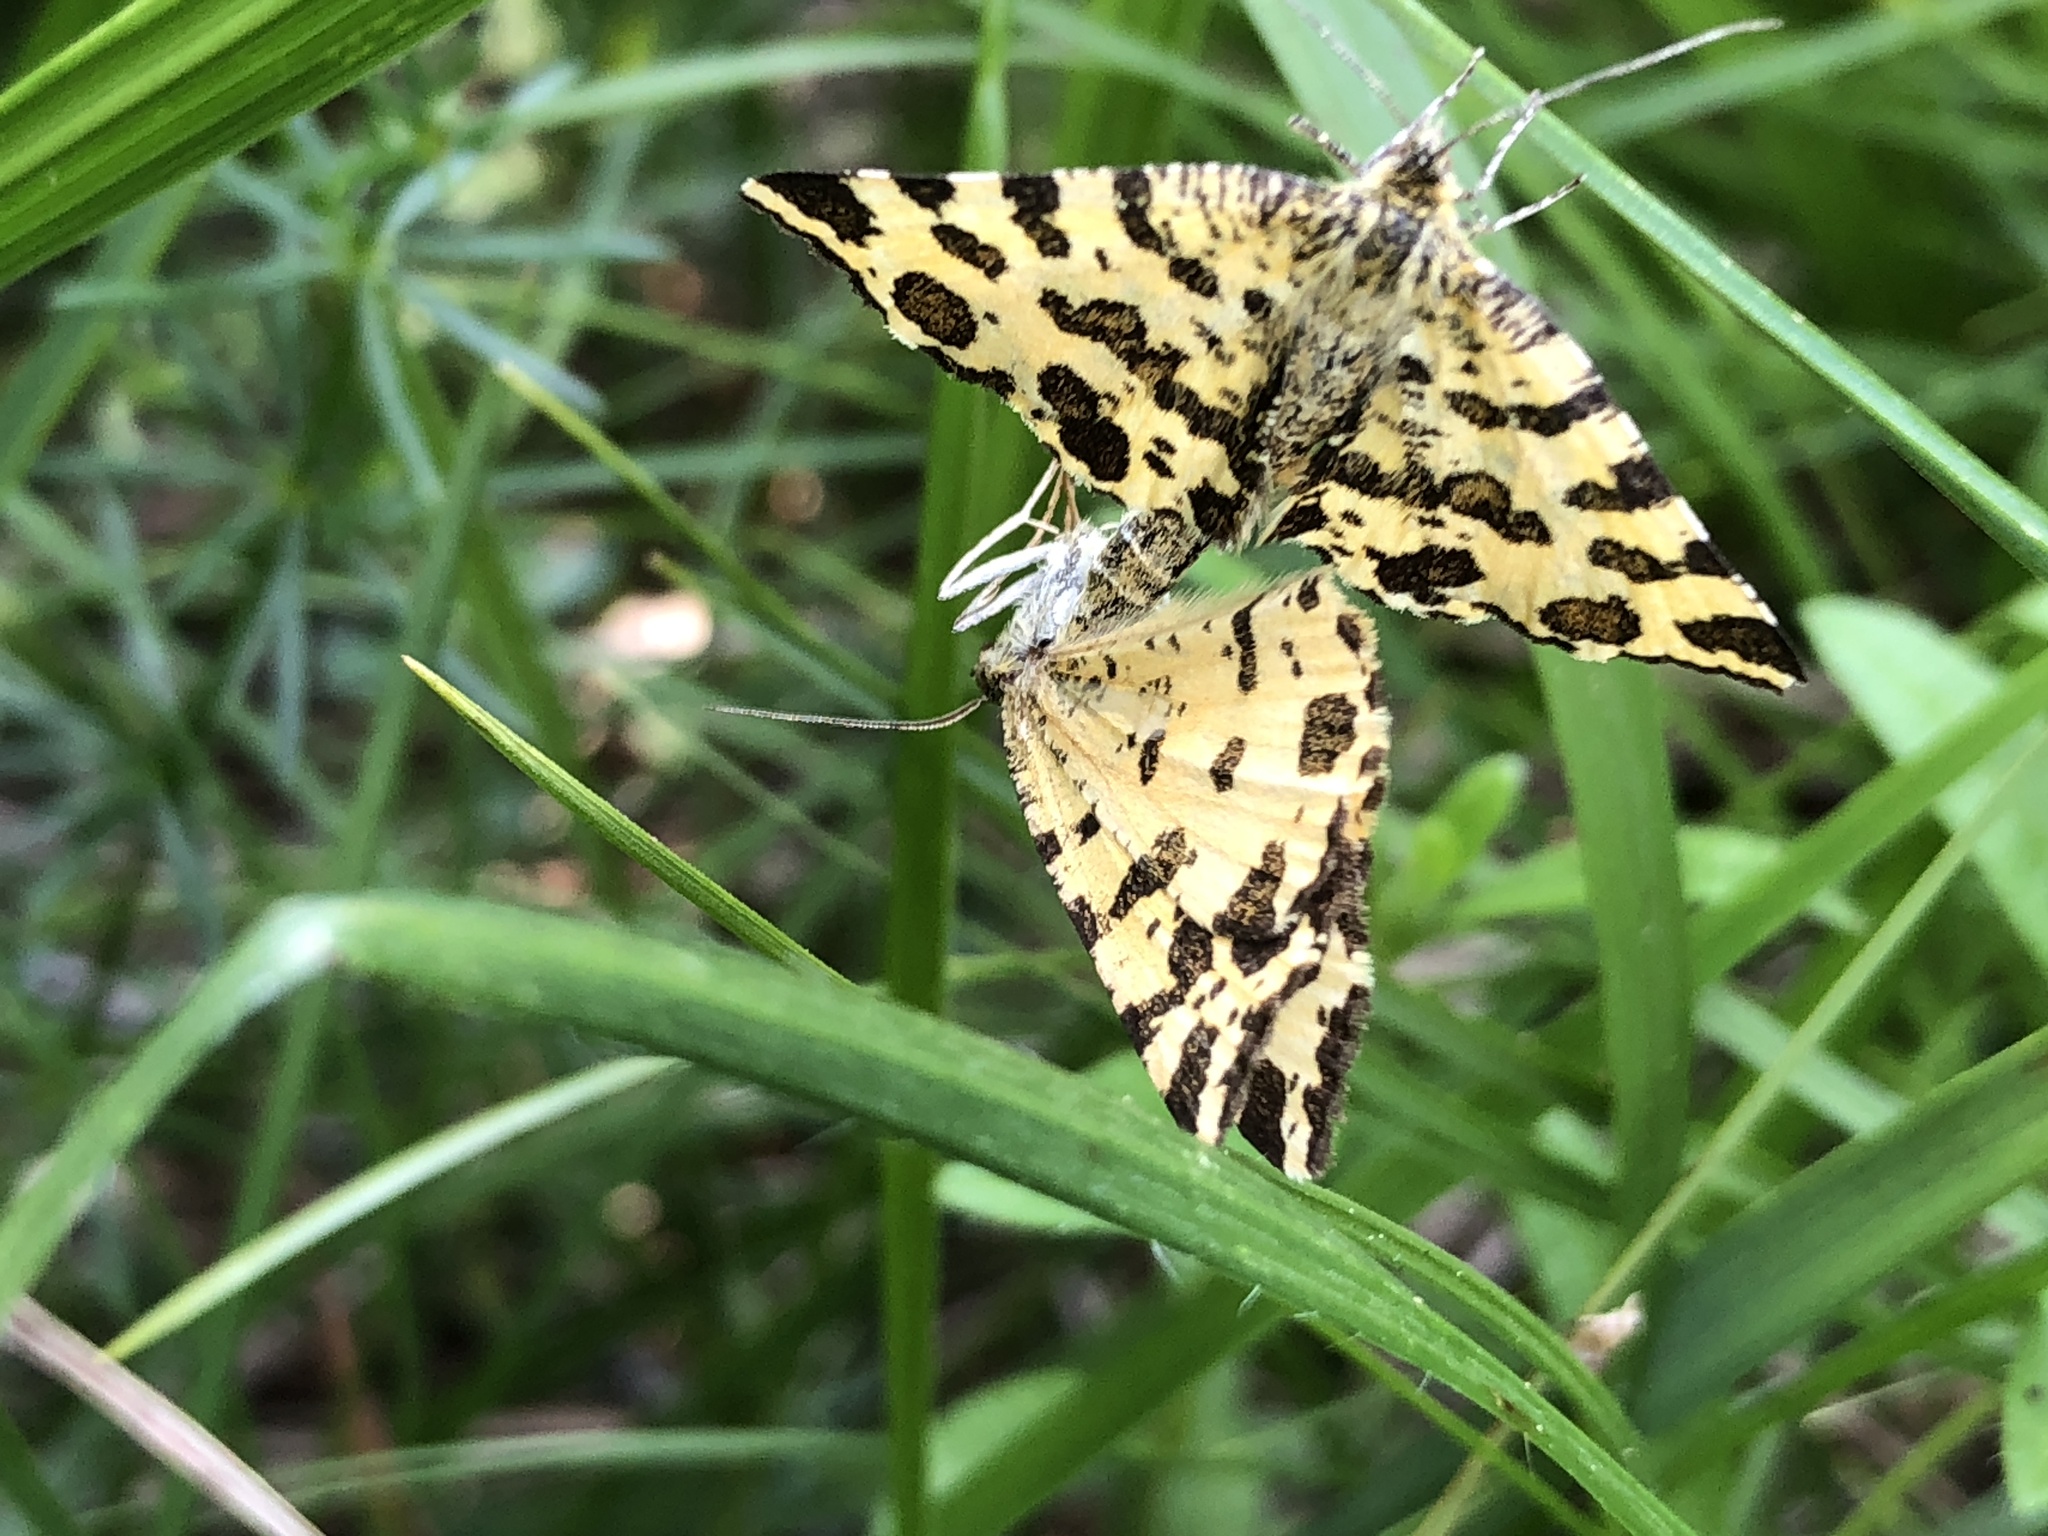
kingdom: Animalia
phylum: Arthropoda
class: Insecta
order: Lepidoptera
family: Geometridae
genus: Pseudopanthera
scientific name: Pseudopanthera macularia
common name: Speckled yellow
